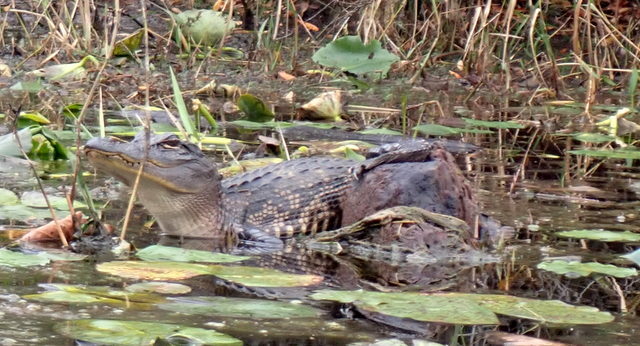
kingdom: Animalia
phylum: Chordata
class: Crocodylia
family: Alligatoridae
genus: Alligator
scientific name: Alligator mississippiensis
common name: American alligator
